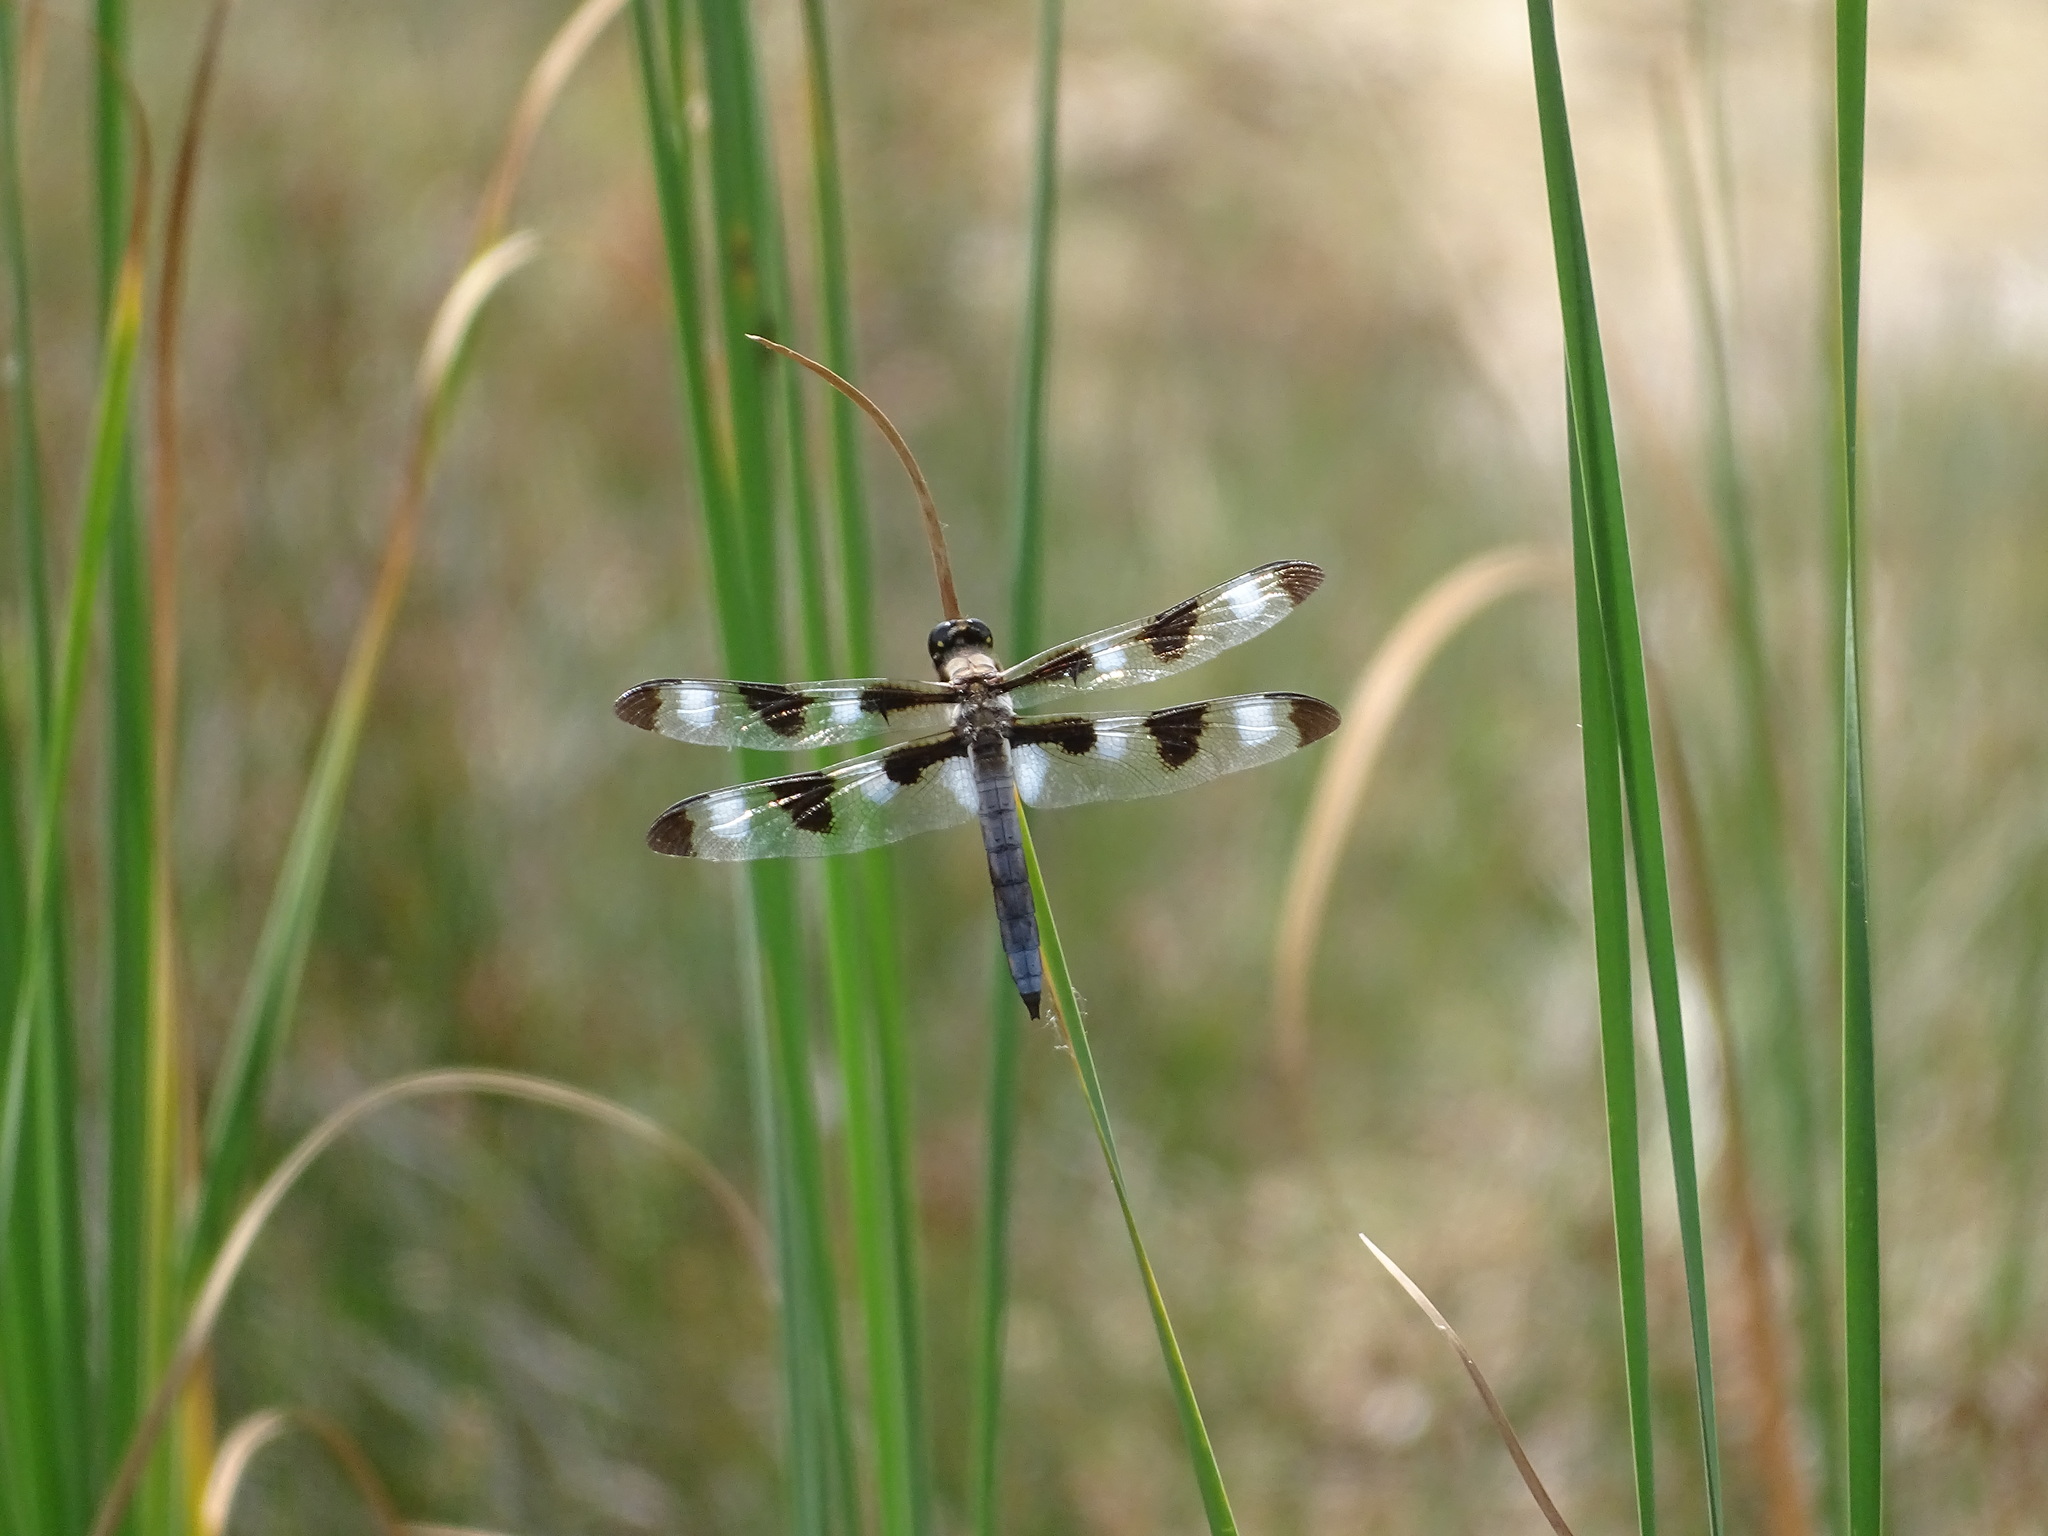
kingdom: Animalia
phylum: Arthropoda
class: Insecta
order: Odonata
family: Libellulidae
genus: Libellula
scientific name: Libellula pulchella
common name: Twelve-spotted skimmer
